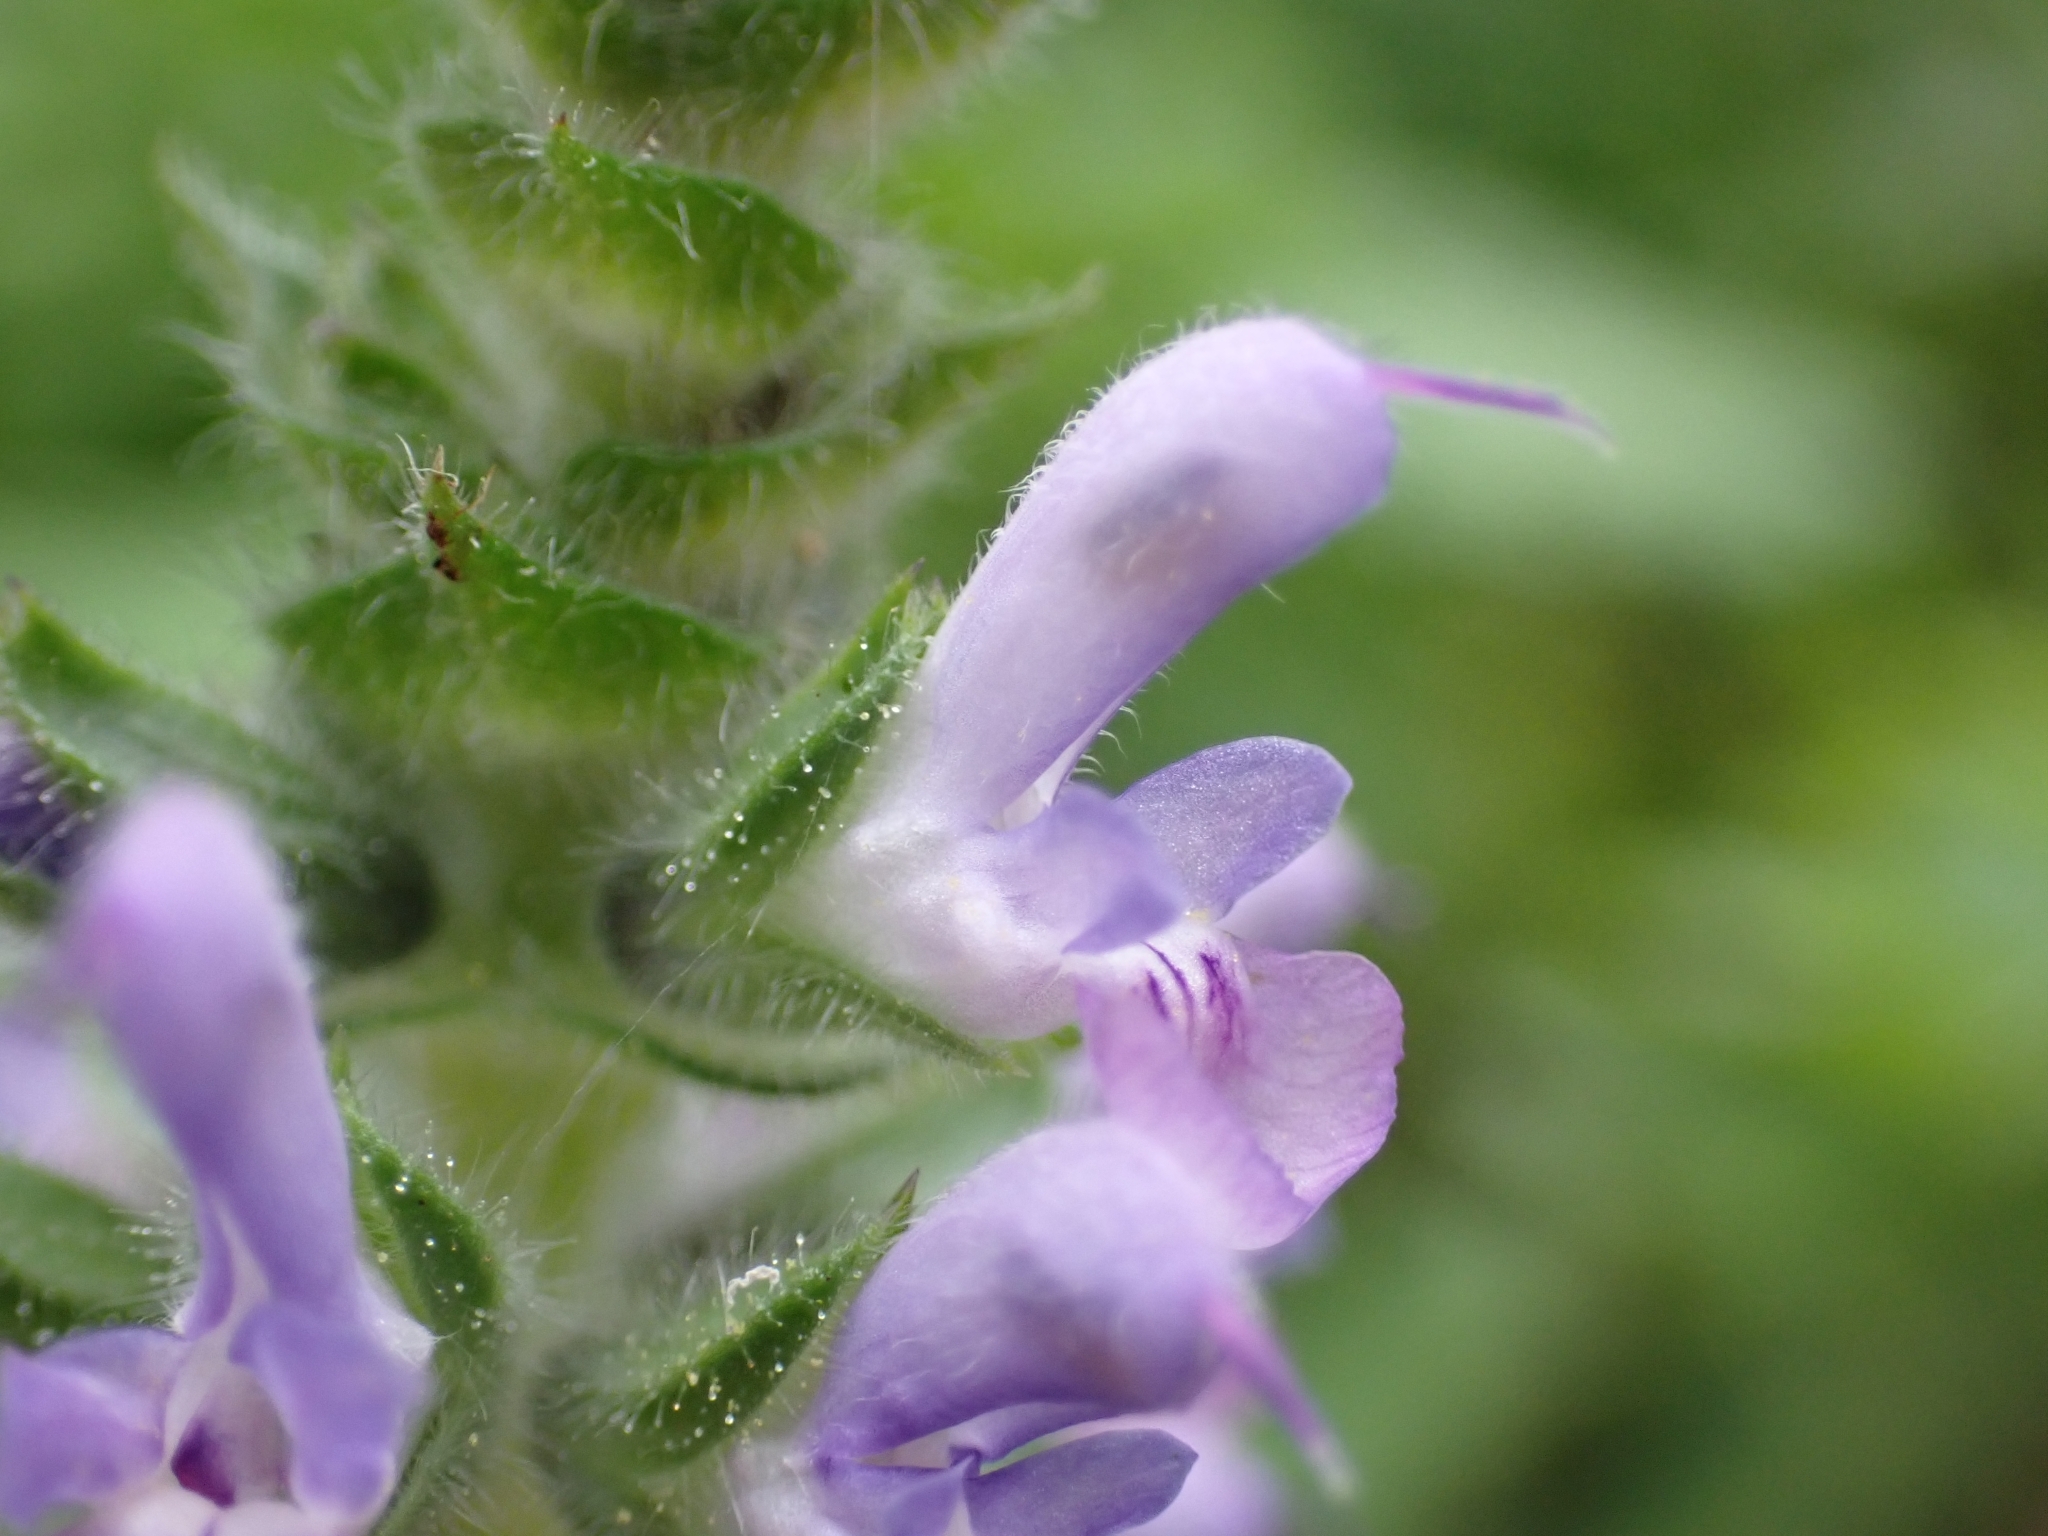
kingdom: Plantae
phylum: Tracheophyta
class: Magnoliopsida
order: Lamiales
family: Lamiaceae
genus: Salvia
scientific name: Salvia verbenaca
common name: Wild clary
